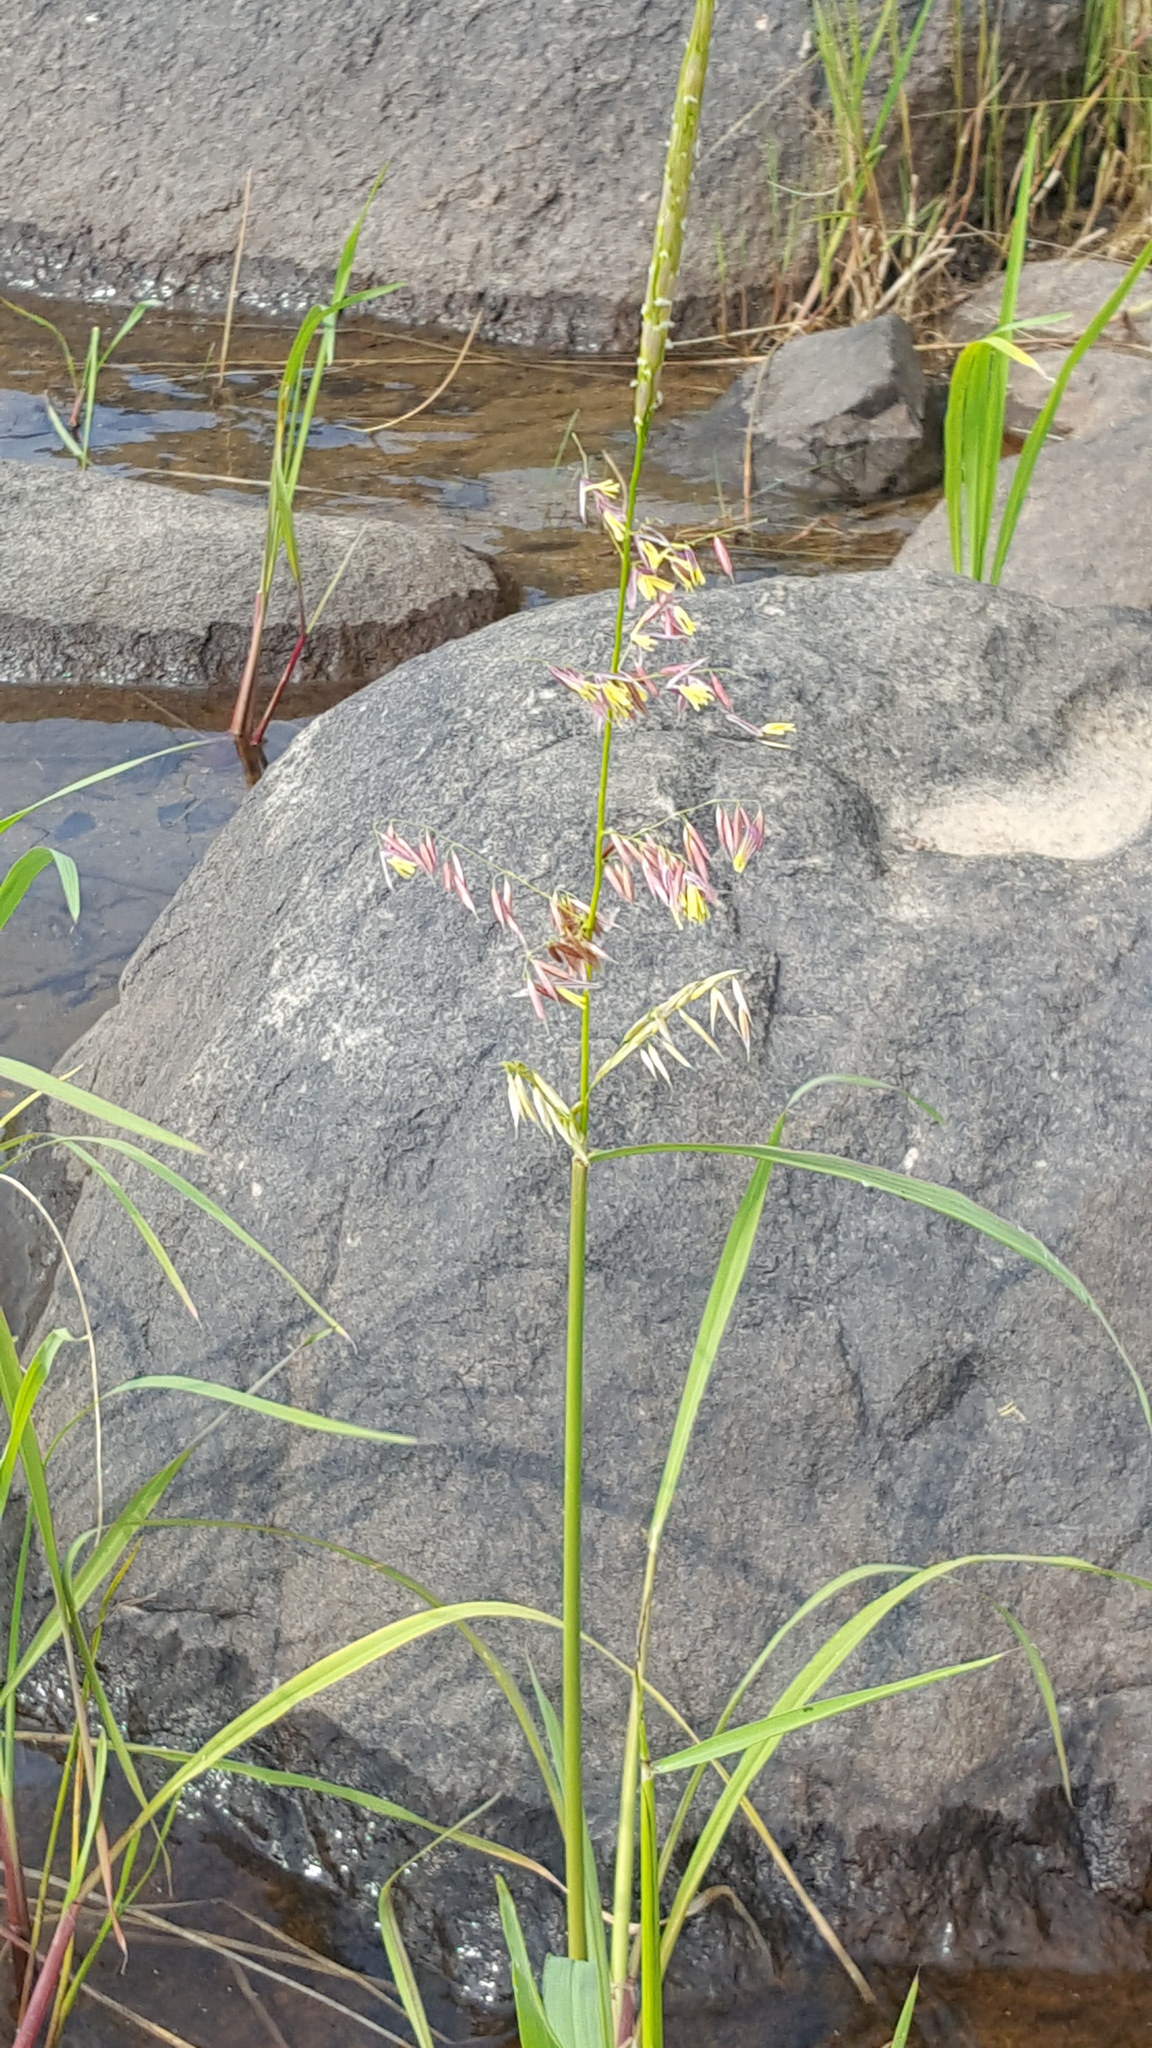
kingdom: Plantae
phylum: Tracheophyta
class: Liliopsida
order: Poales
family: Poaceae
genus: Zizania
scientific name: Zizania palustris
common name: Northern wild rice
